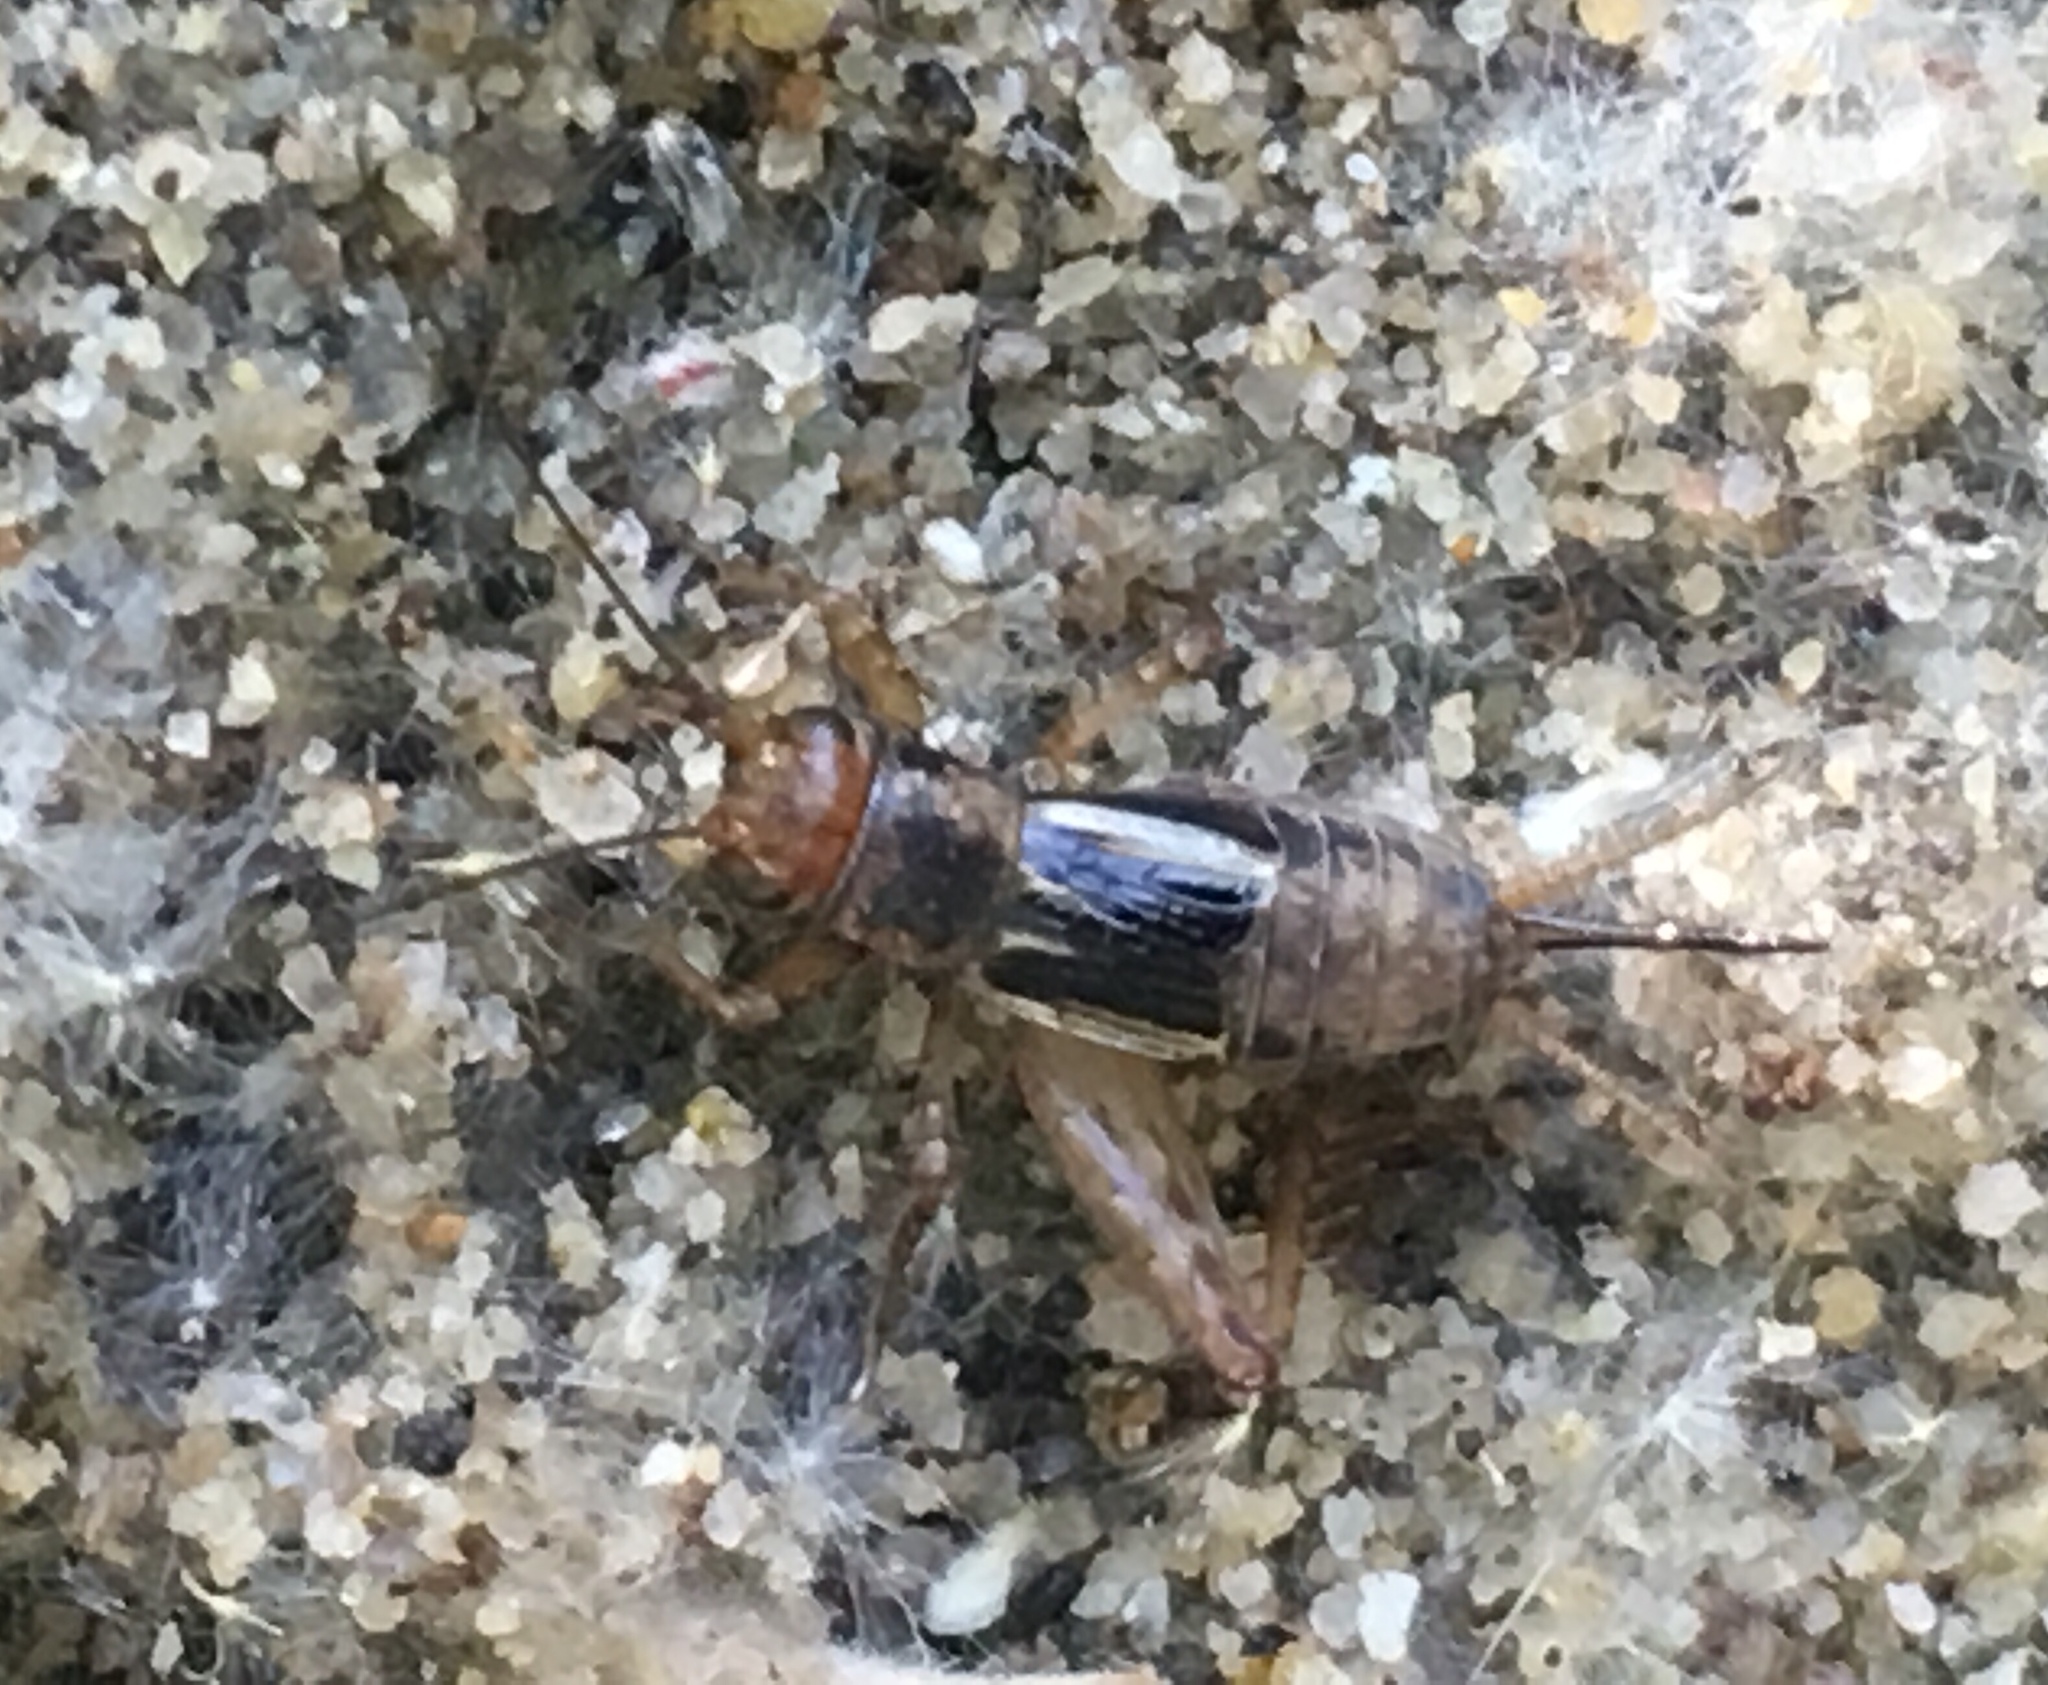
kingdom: Animalia
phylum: Arthropoda
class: Insecta
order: Orthoptera
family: Trigonidiidae
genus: Neonemobius
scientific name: Neonemobius mormonius
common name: Mormon ground cricket
